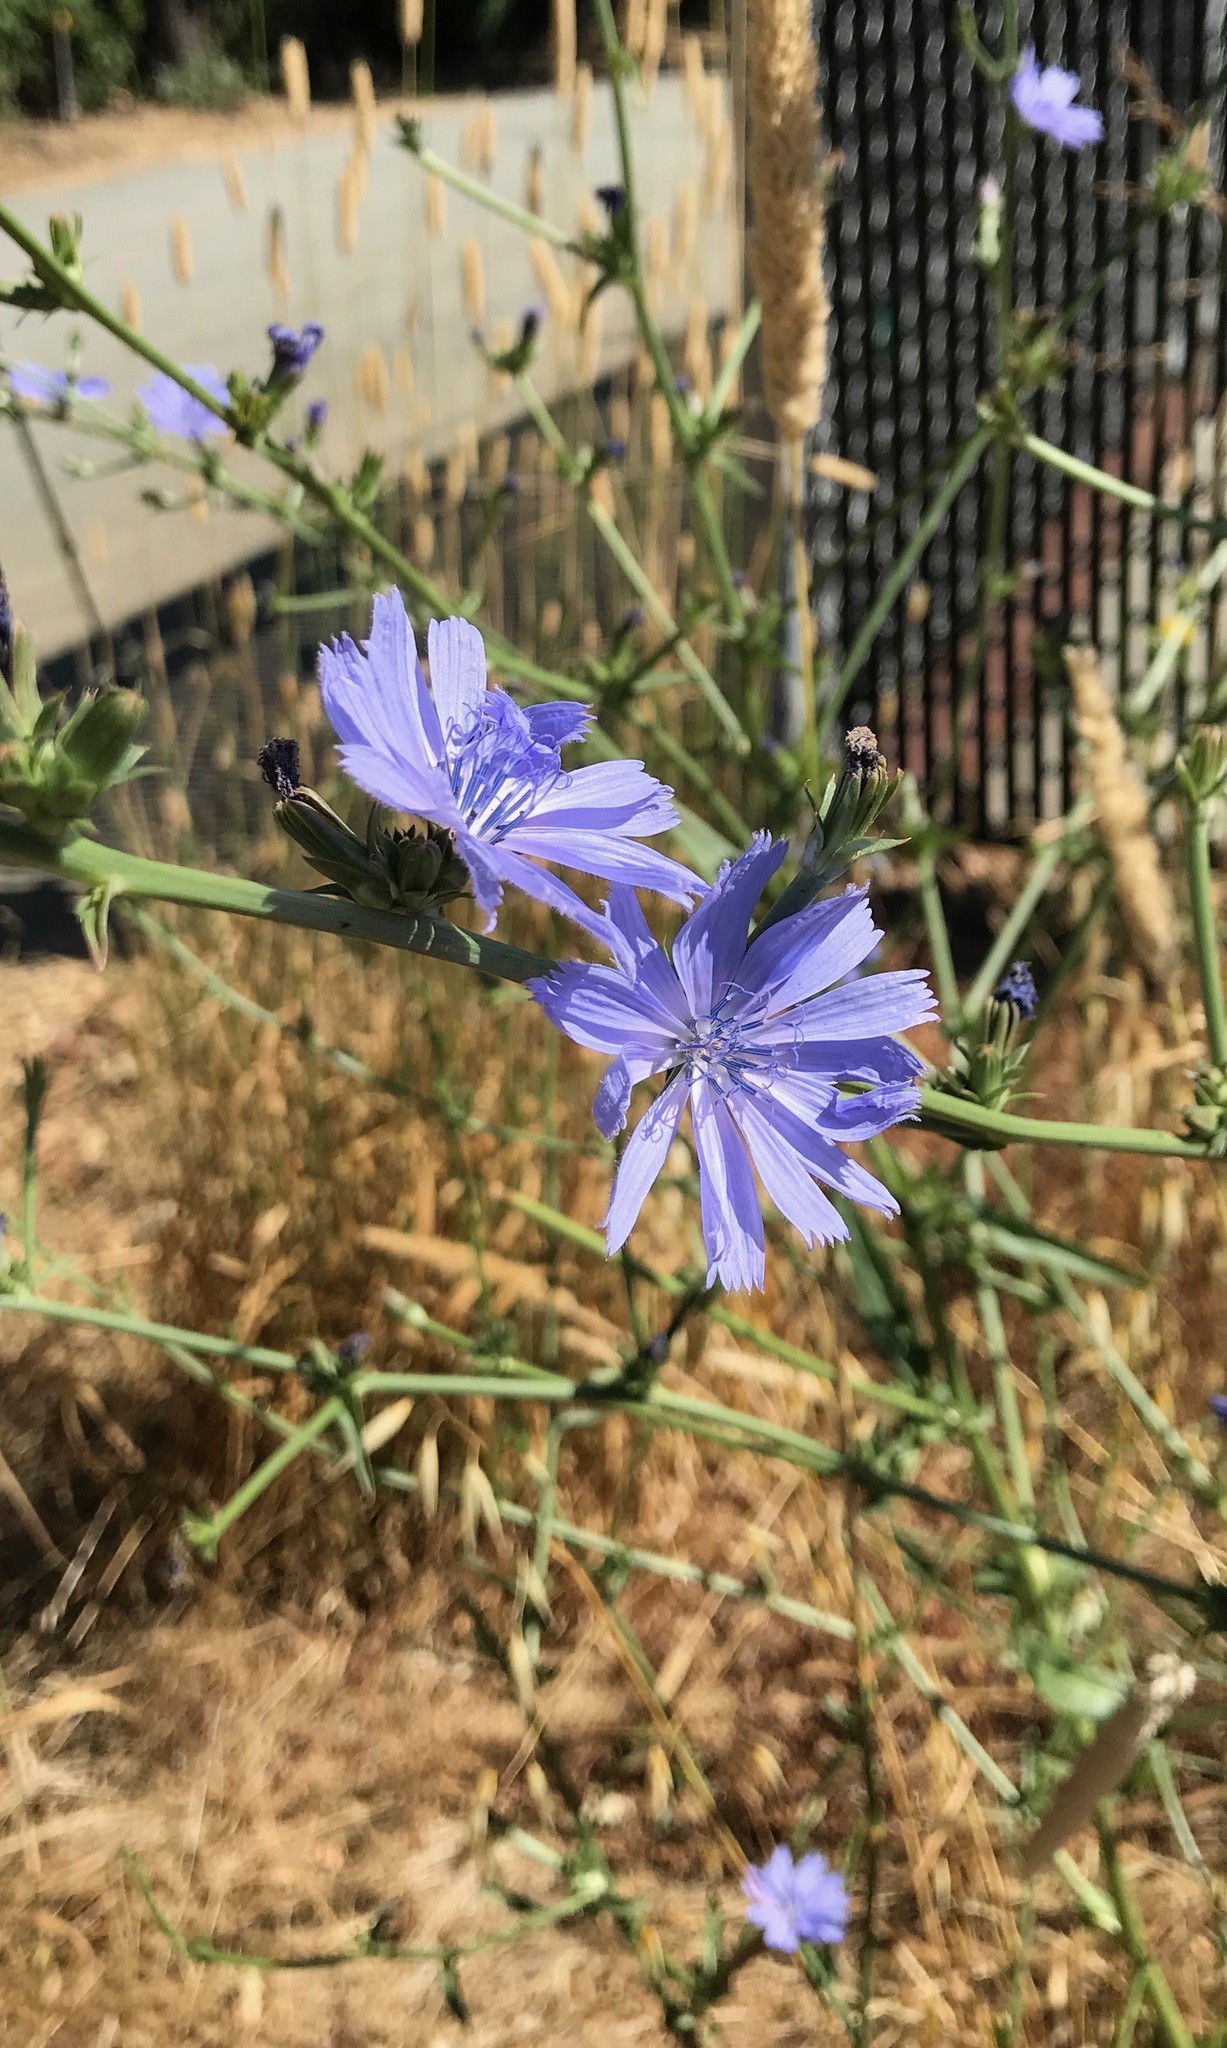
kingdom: Plantae
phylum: Tracheophyta
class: Magnoliopsida
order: Asterales
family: Asteraceae
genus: Cichorium
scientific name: Cichorium intybus
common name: Chicory
